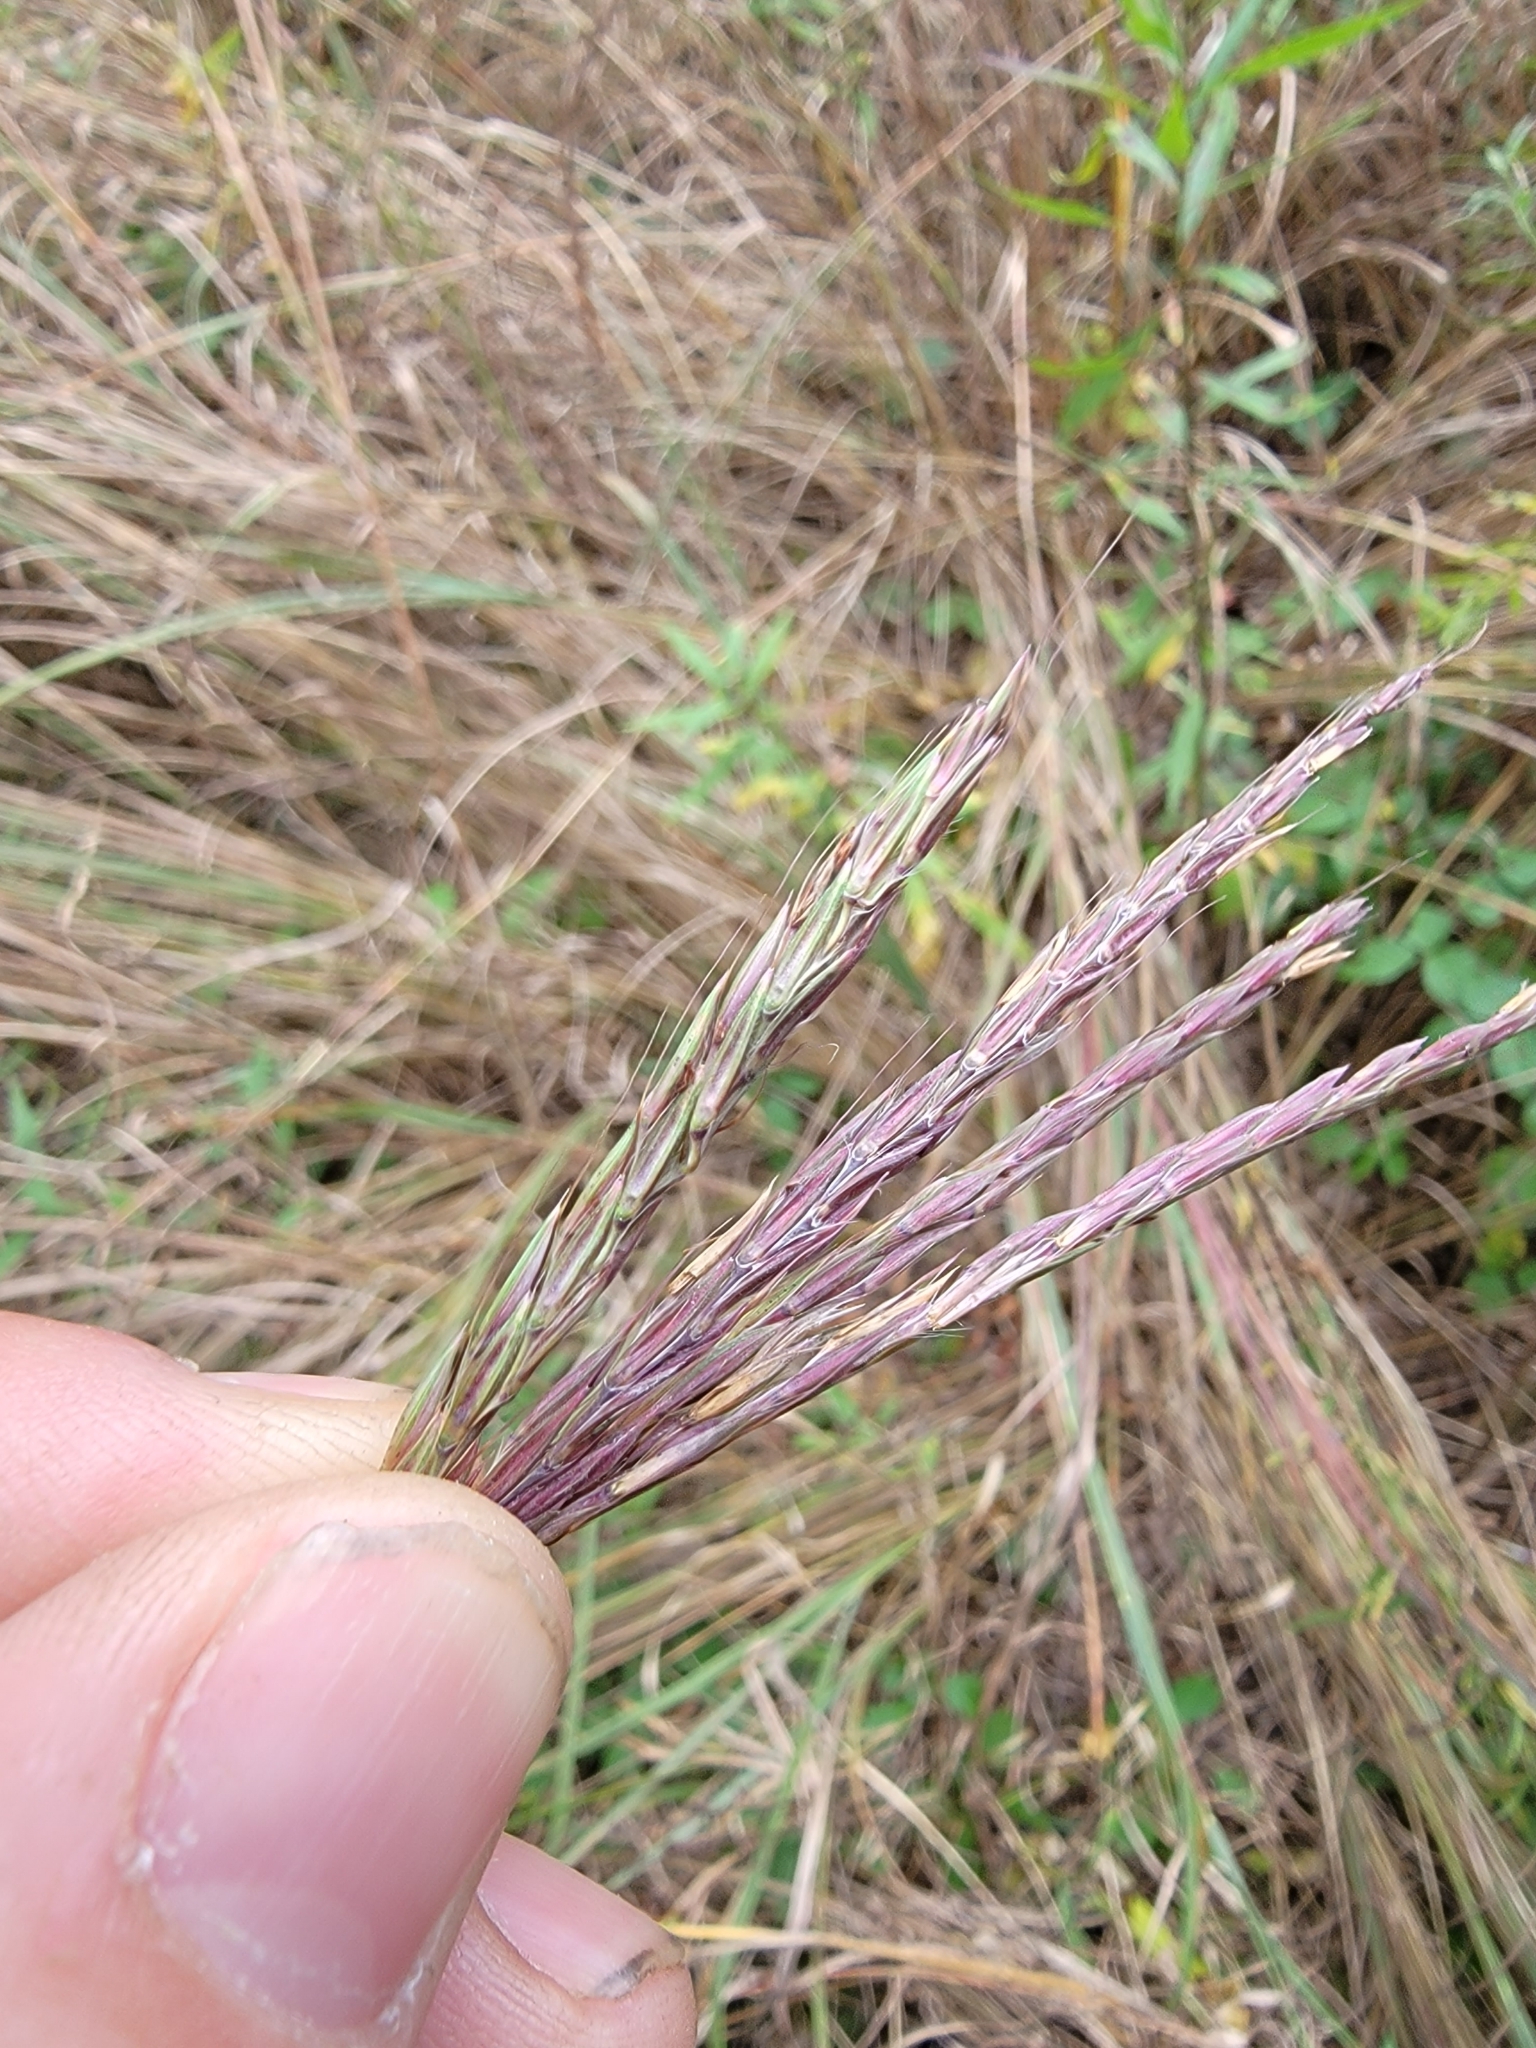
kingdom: Plantae
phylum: Tracheophyta
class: Liliopsida
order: Poales
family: Poaceae
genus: Andropogon
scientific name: Andropogon gerardi
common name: Big bluestem
